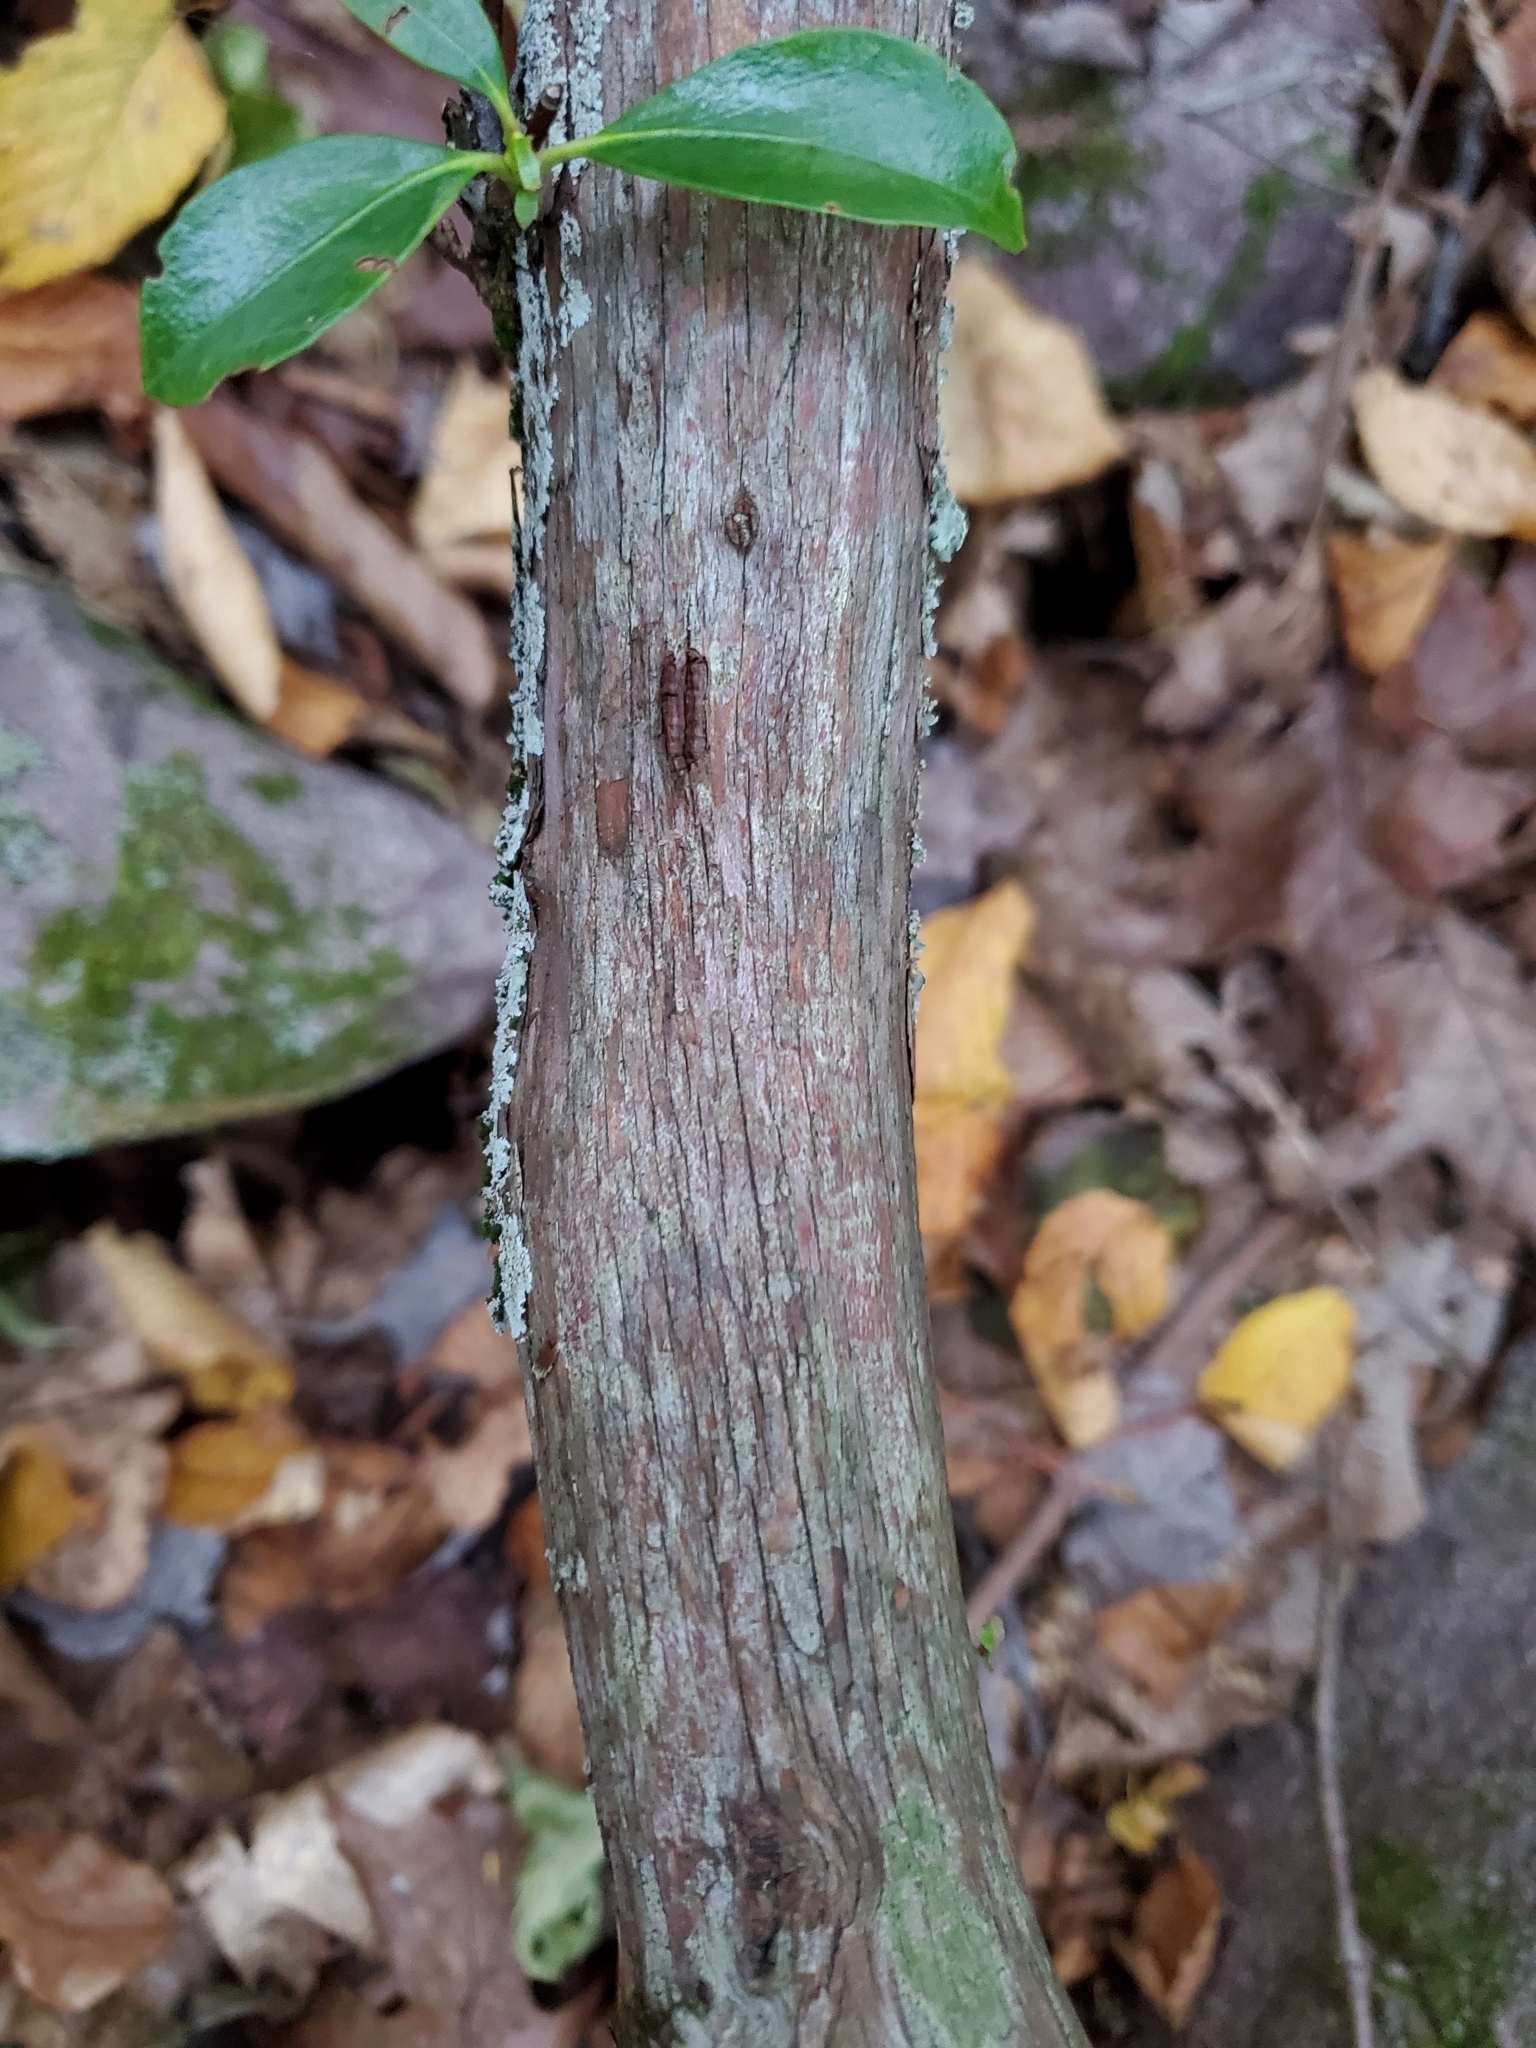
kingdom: Plantae
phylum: Tracheophyta
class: Magnoliopsida
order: Ericales
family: Ericaceae
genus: Kalmia
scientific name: Kalmia latifolia
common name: Mountain-laurel
